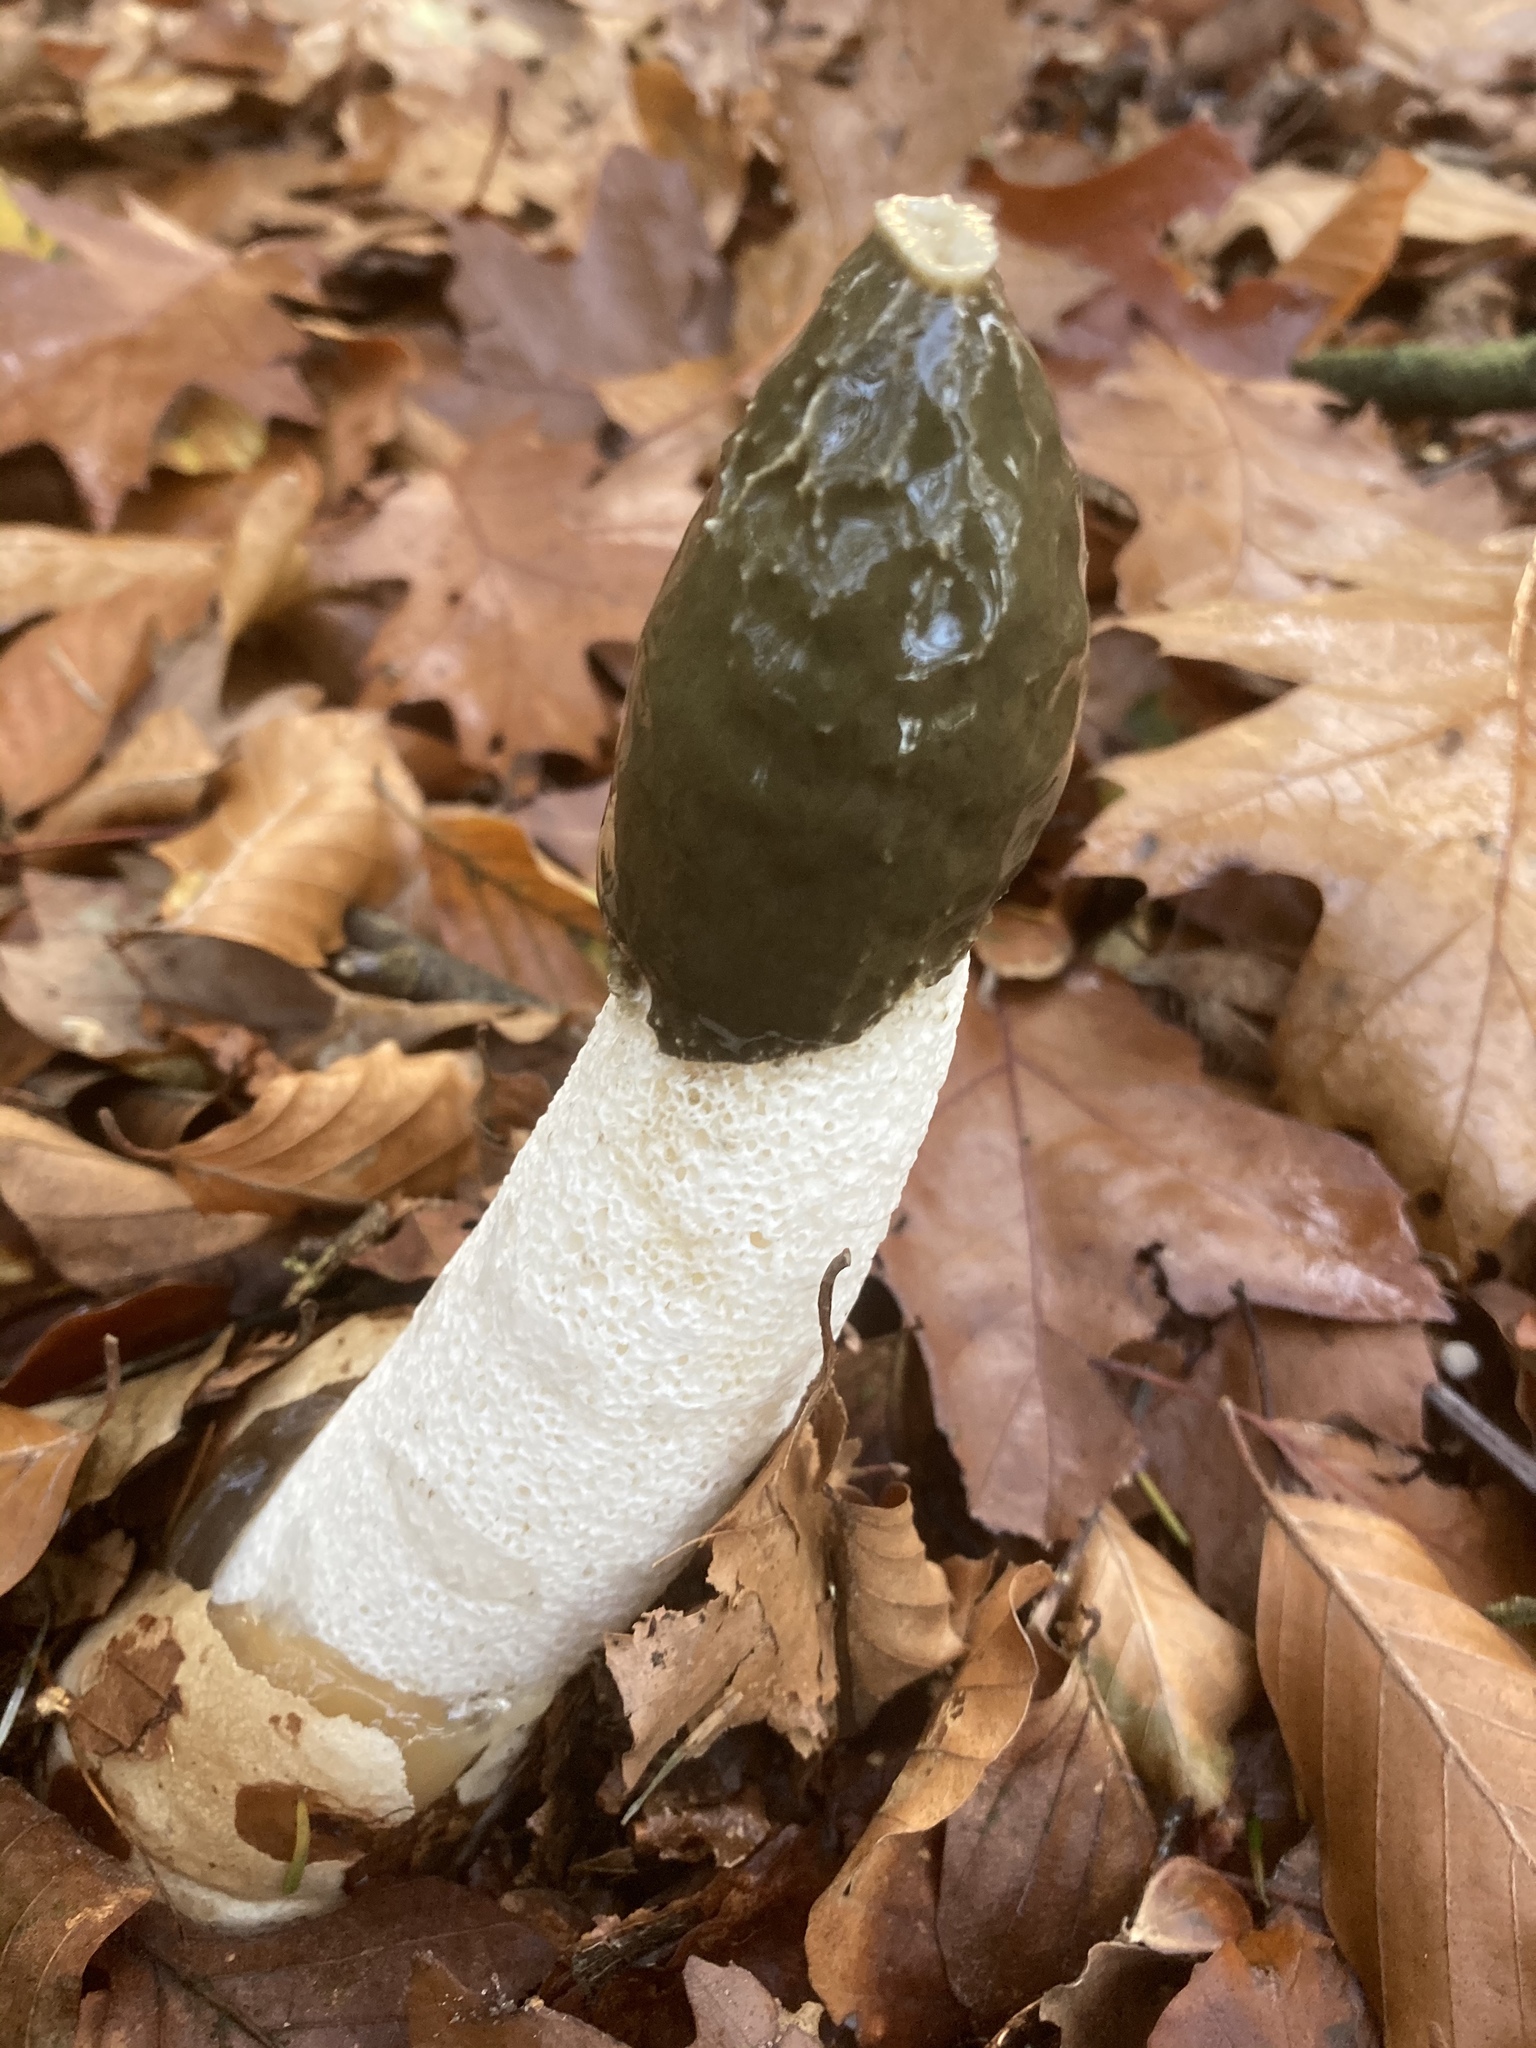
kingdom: Fungi
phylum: Basidiomycota
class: Agaricomycetes
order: Phallales
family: Phallaceae
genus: Phallus
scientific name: Phallus impudicus
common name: Common stinkhorn
